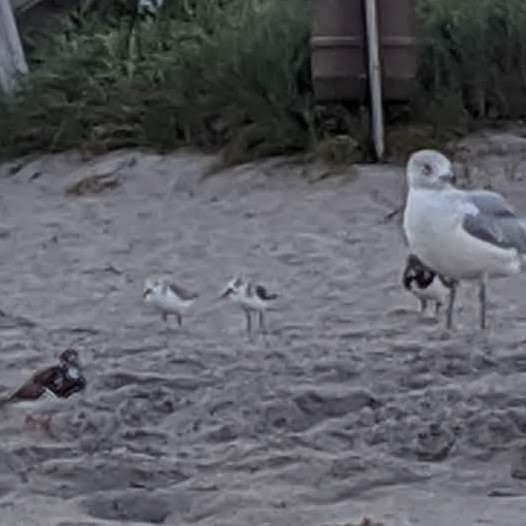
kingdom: Animalia
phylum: Chordata
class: Aves
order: Charadriiformes
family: Scolopacidae
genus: Calidris
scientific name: Calidris alba
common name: Sanderling
